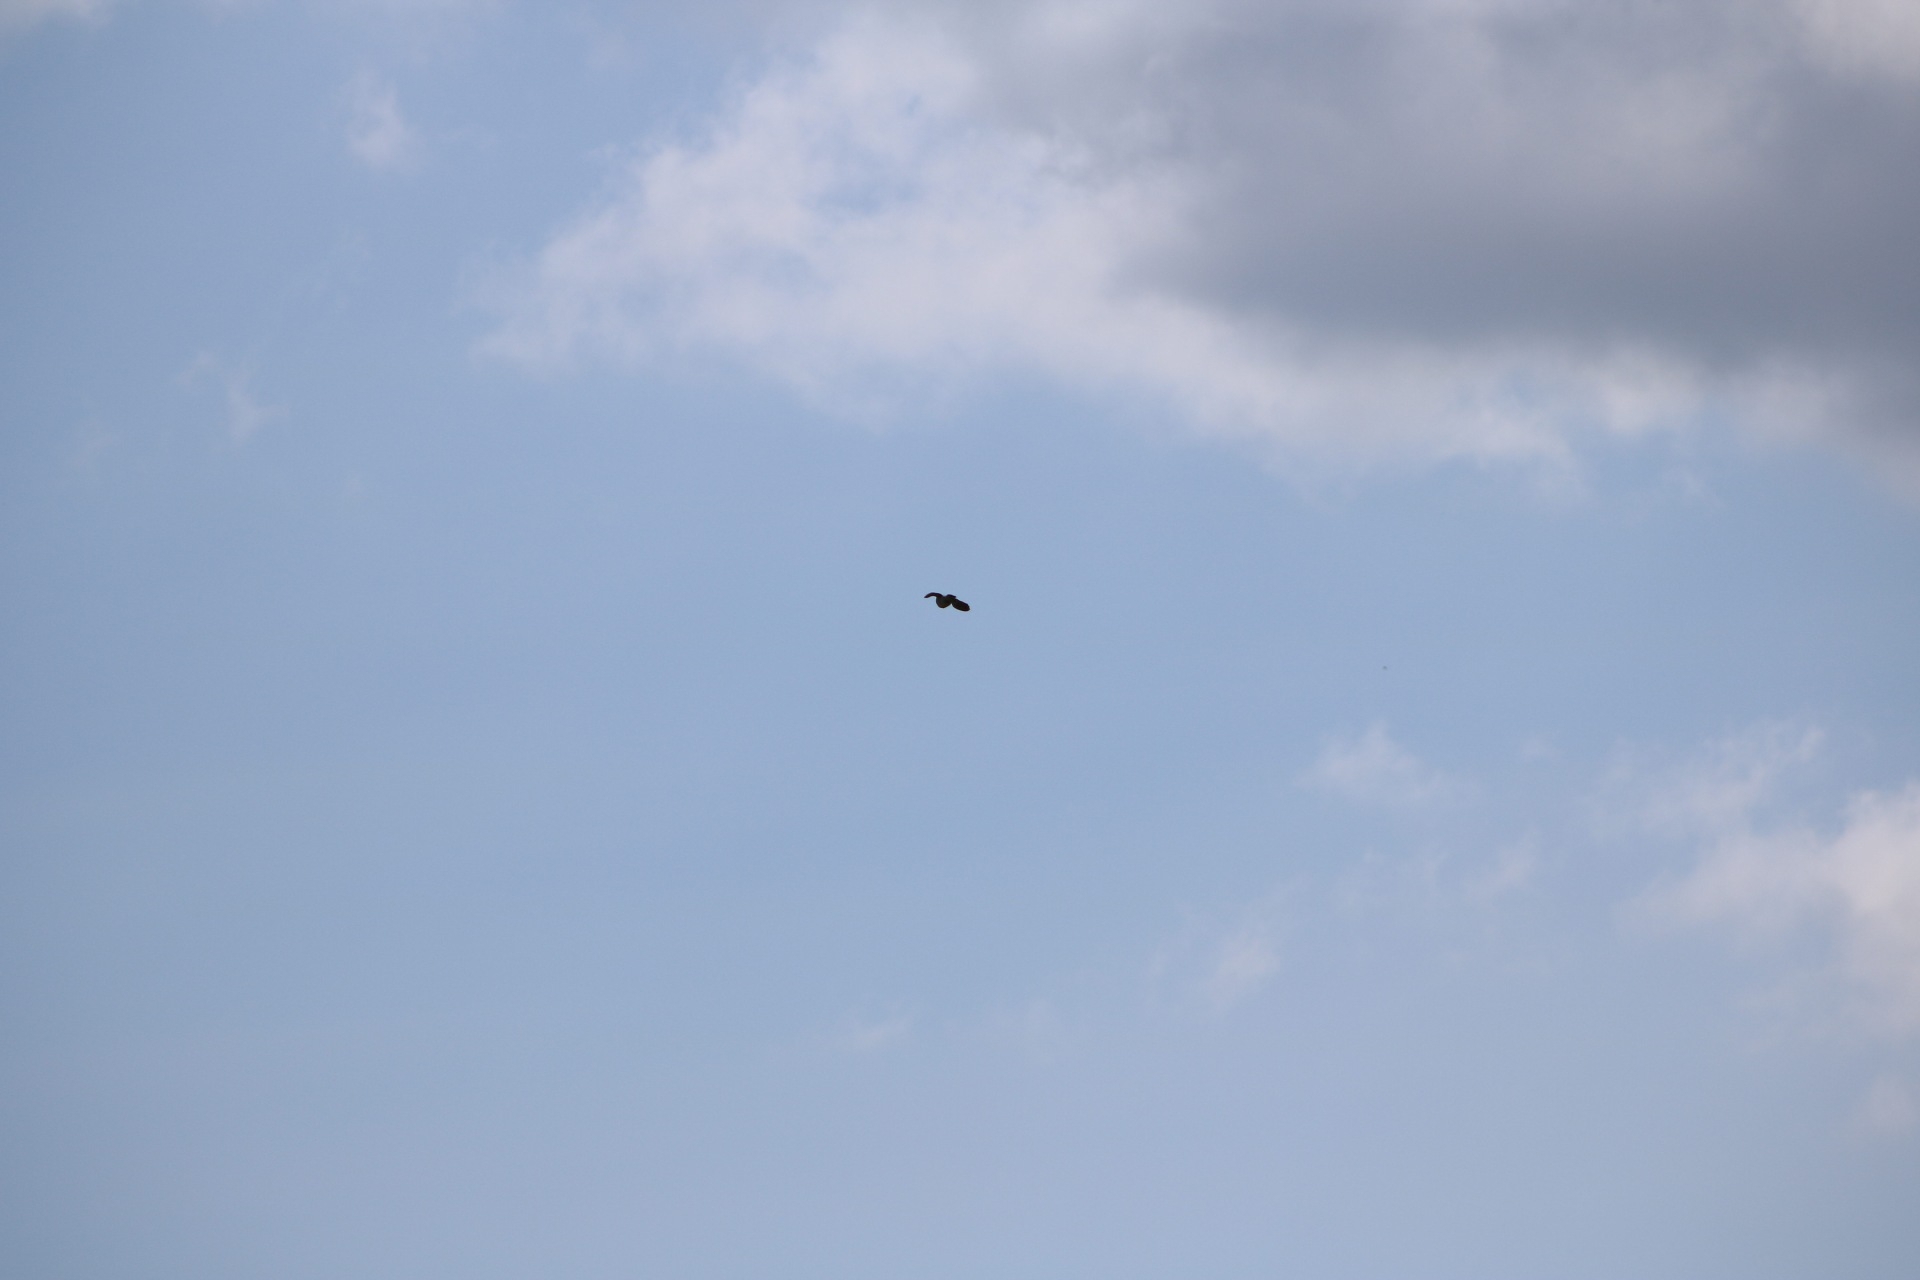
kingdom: Animalia
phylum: Chordata
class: Aves
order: Columbiformes
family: Columbidae
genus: Columba
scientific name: Columba palumbus
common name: Common wood pigeon
